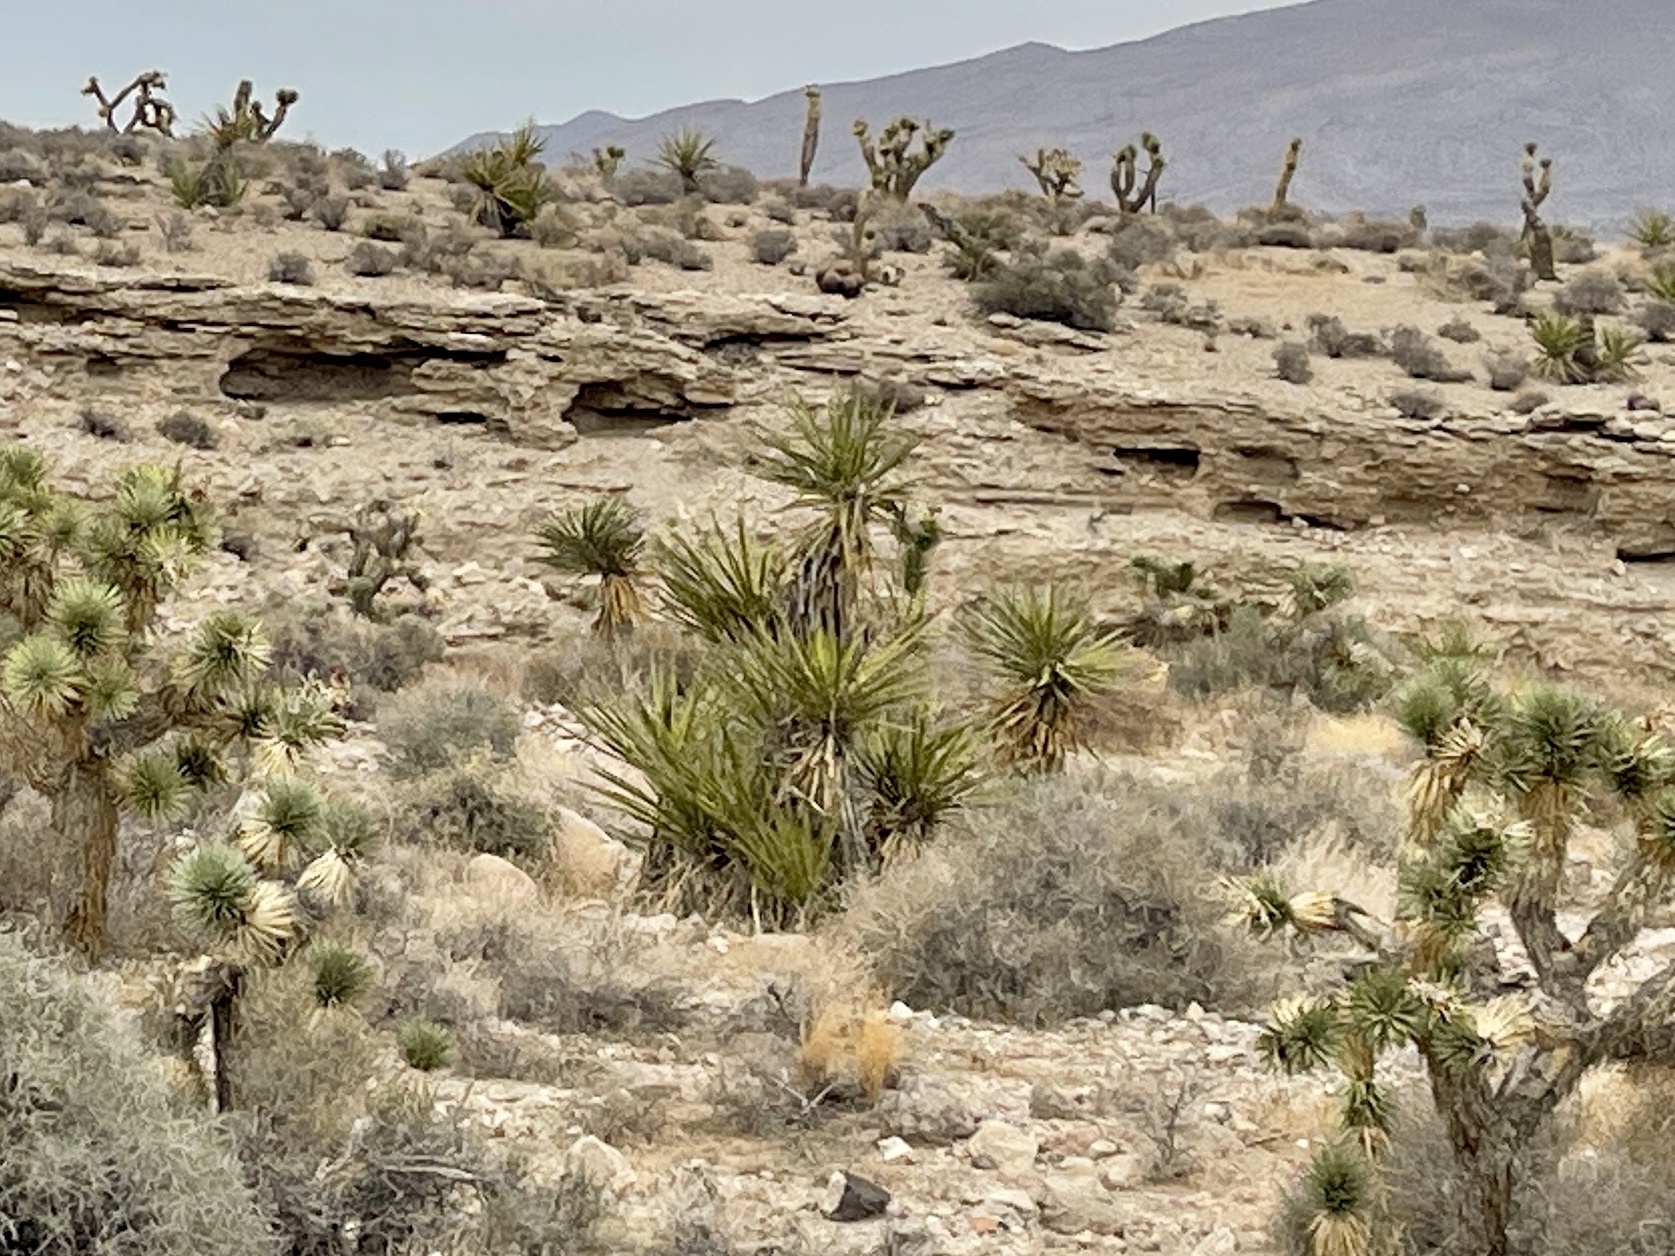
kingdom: Plantae
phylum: Tracheophyta
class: Liliopsida
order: Asparagales
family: Asparagaceae
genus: Yucca
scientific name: Yucca schidigera
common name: Mojave yucca
